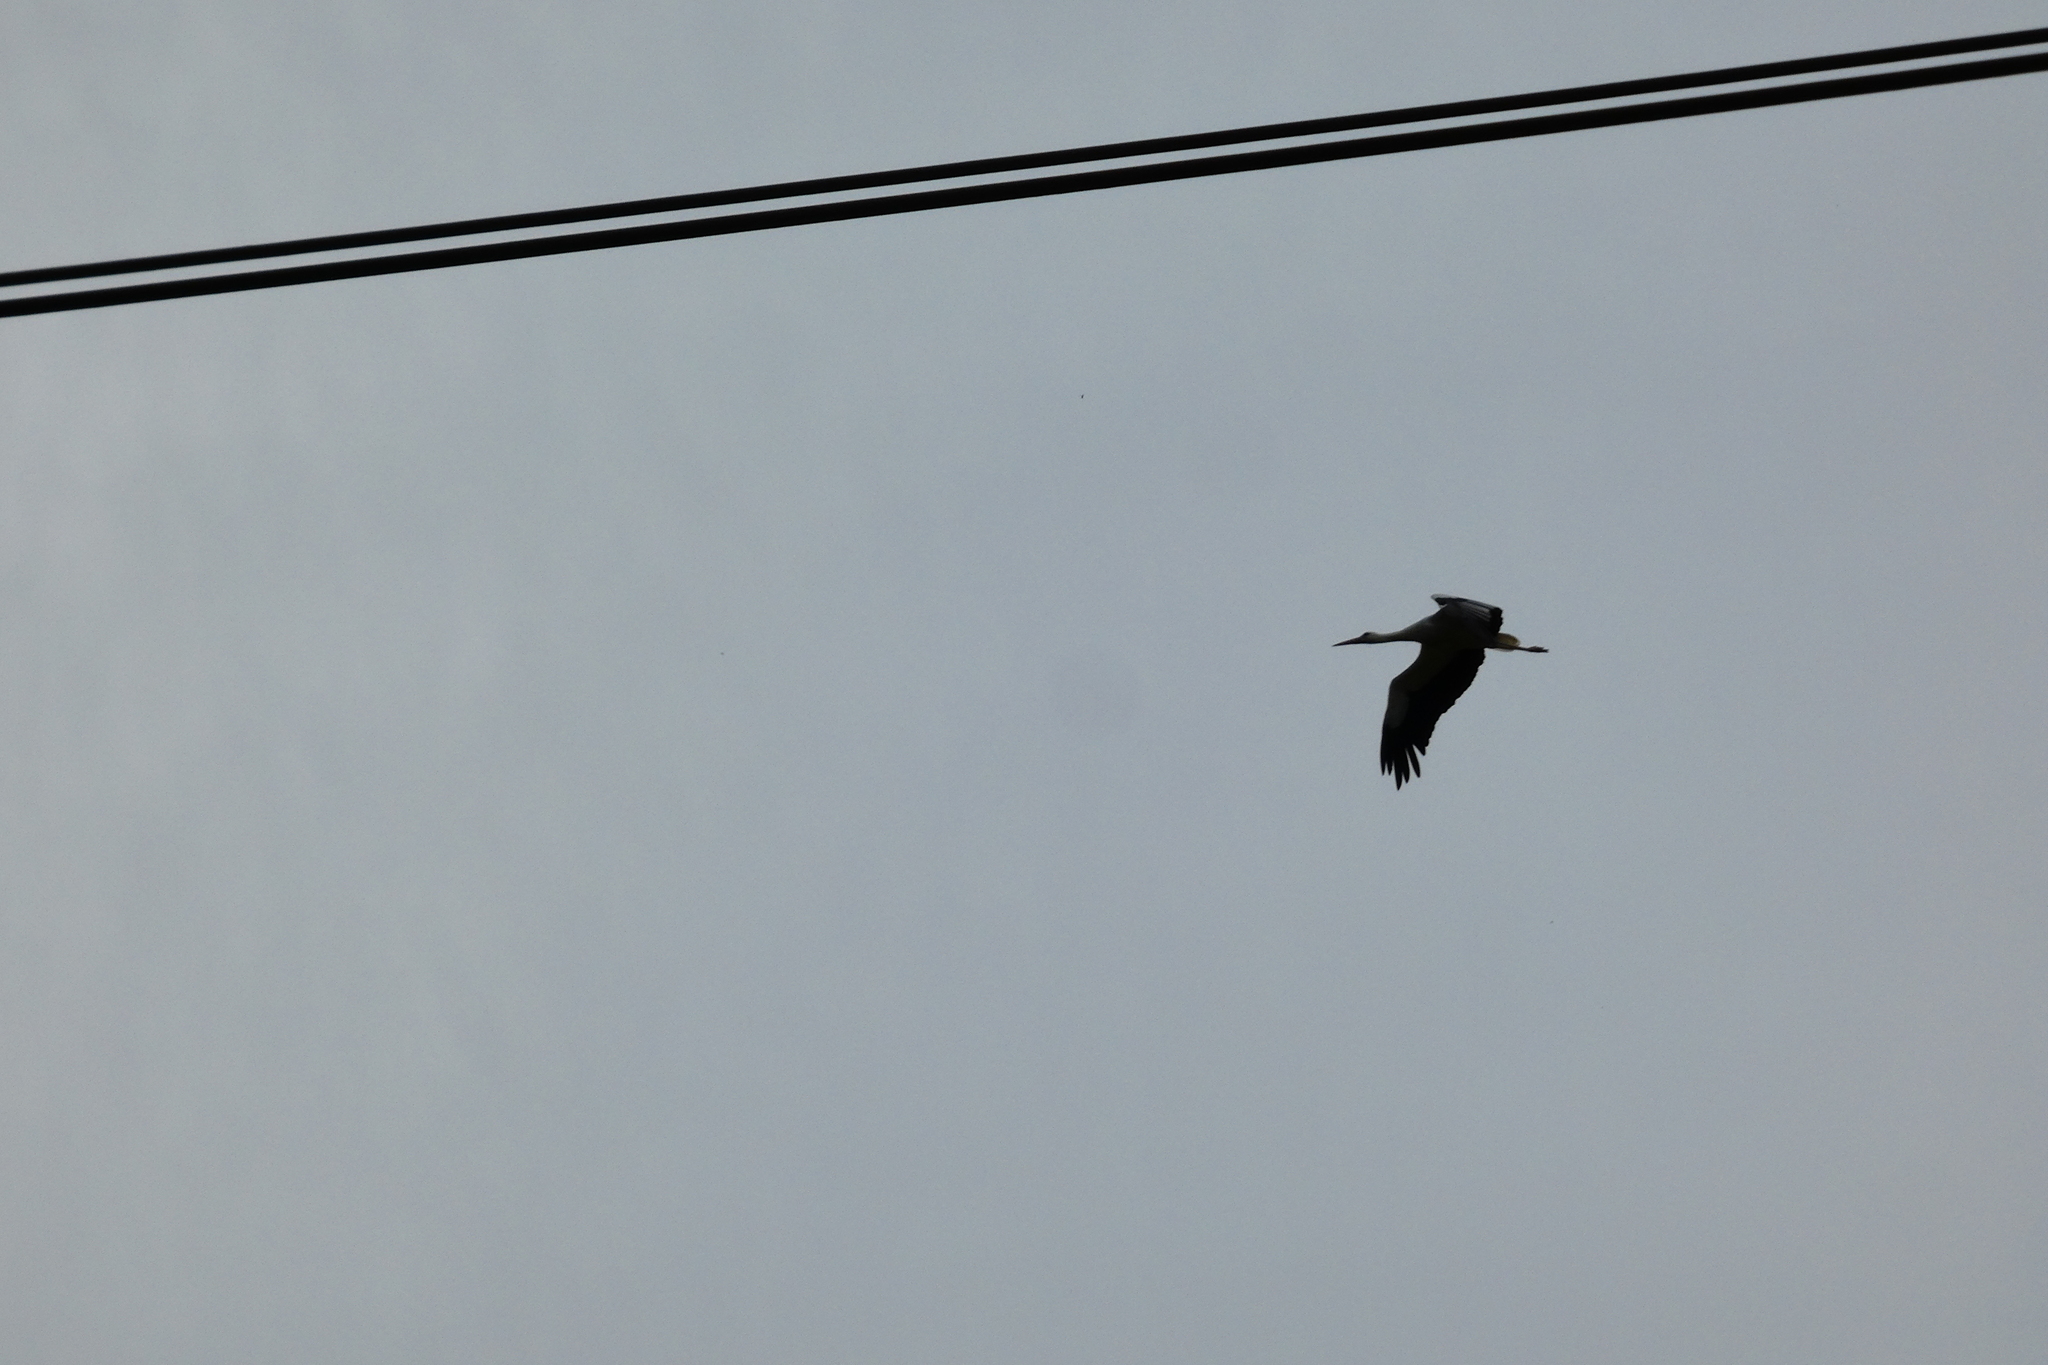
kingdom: Animalia
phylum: Chordata
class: Aves
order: Ciconiiformes
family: Ciconiidae
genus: Ciconia
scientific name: Ciconia ciconia
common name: White stork
